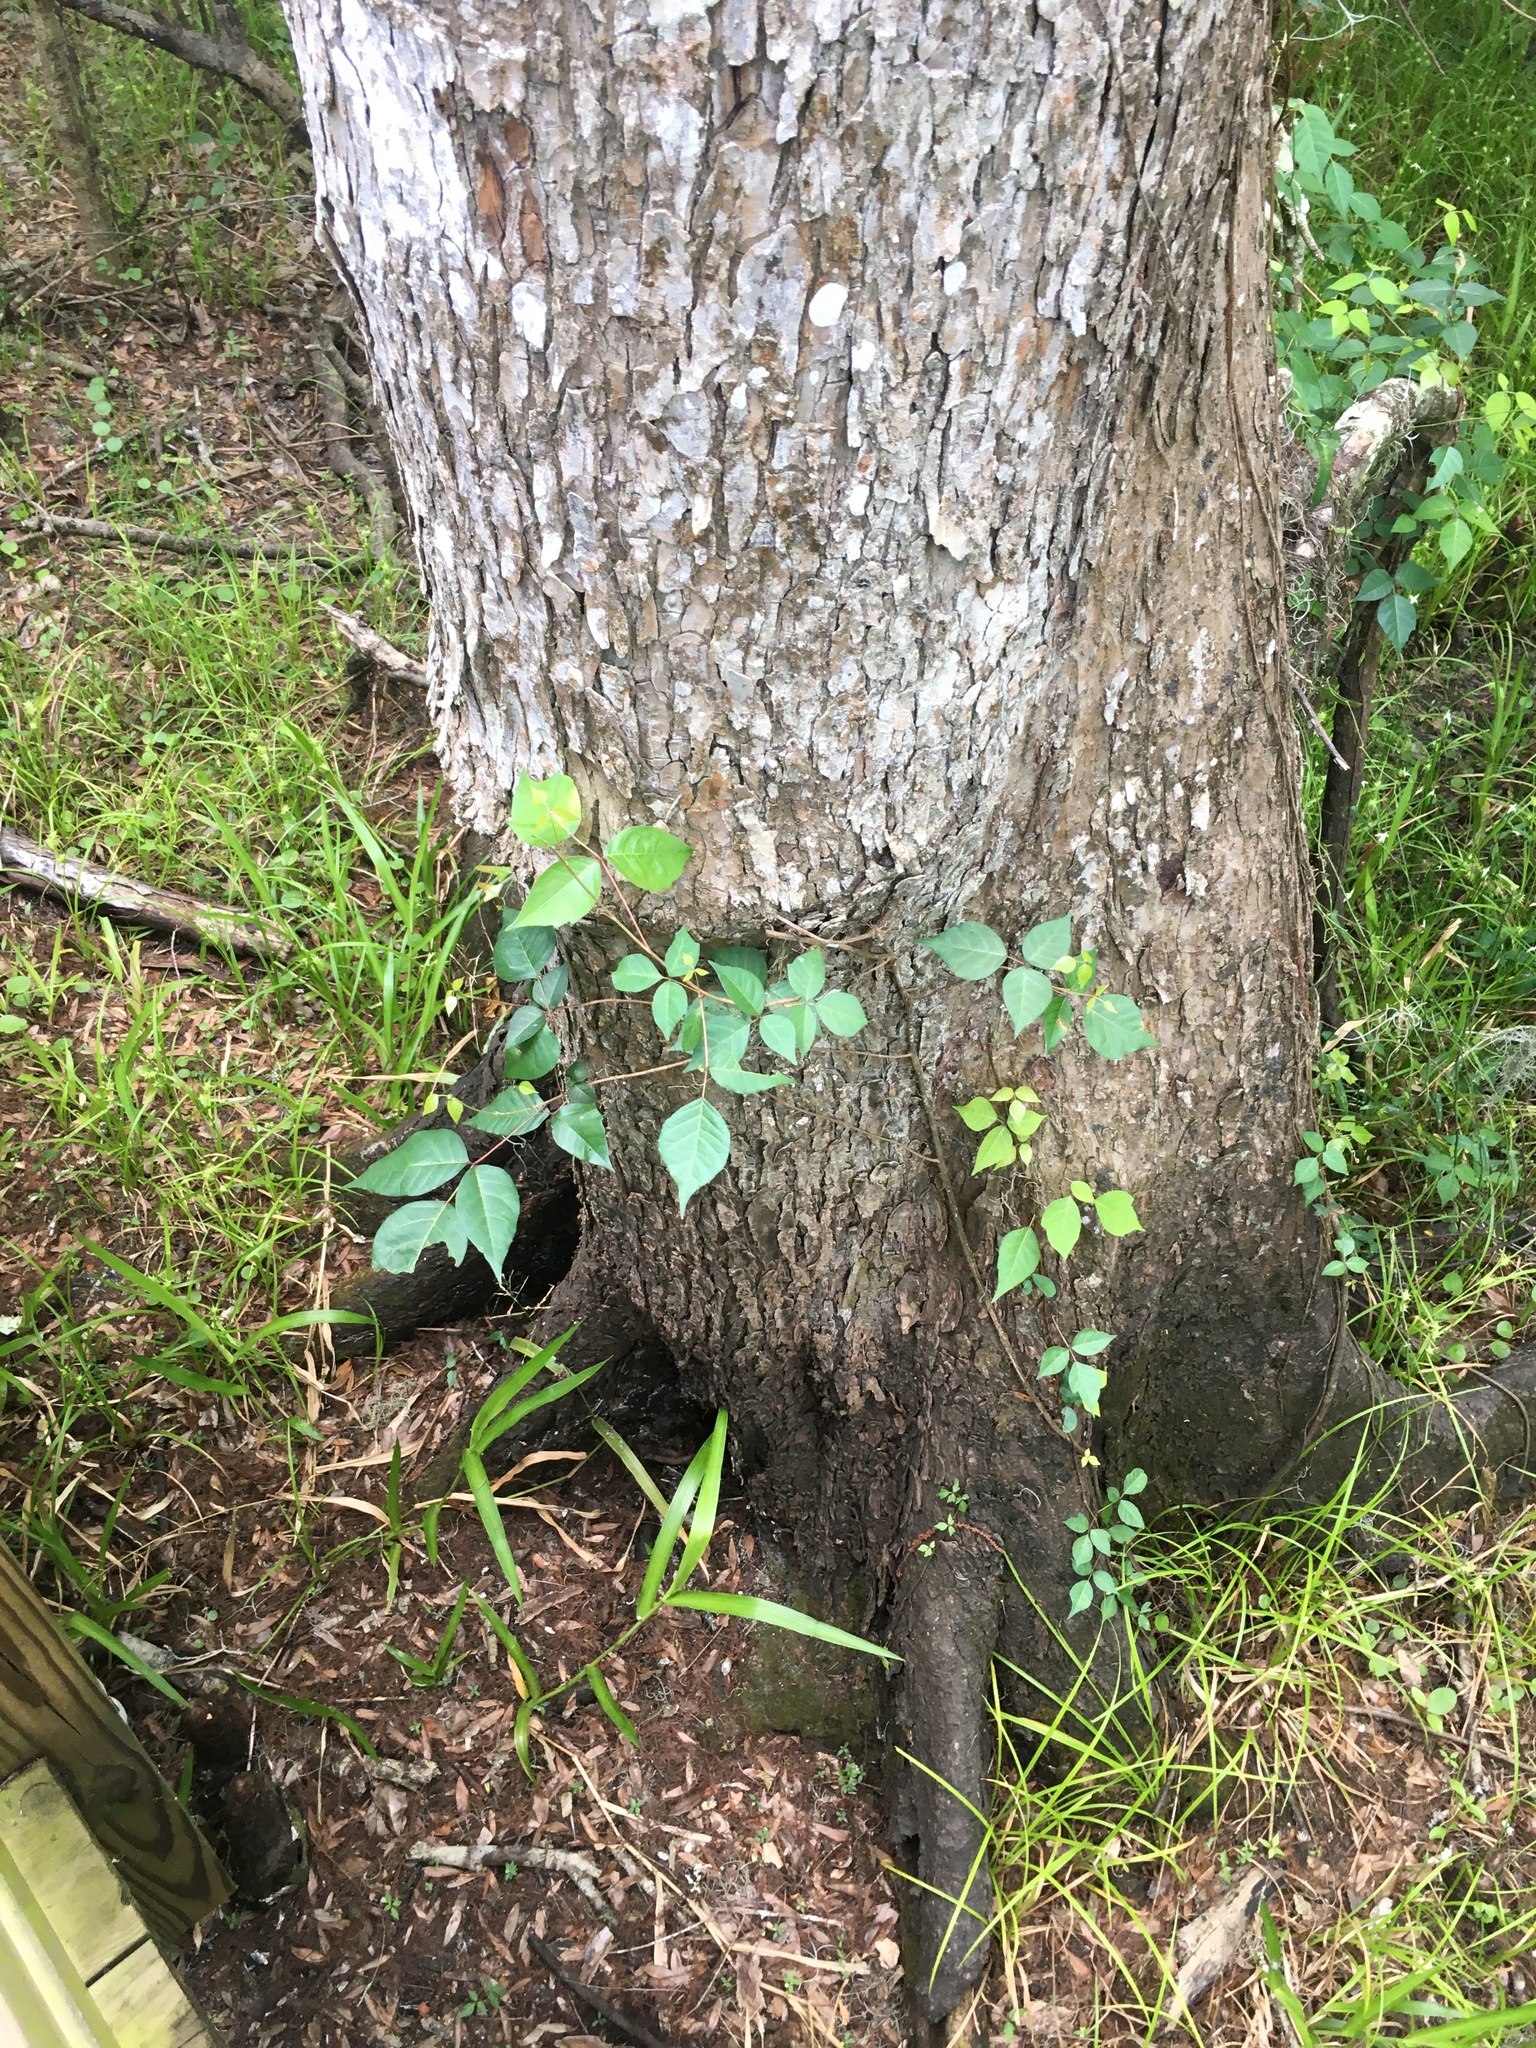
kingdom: Plantae
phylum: Tracheophyta
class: Magnoliopsida
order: Sapindales
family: Anacardiaceae
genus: Toxicodendron
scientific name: Toxicodendron radicans
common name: Poison ivy
